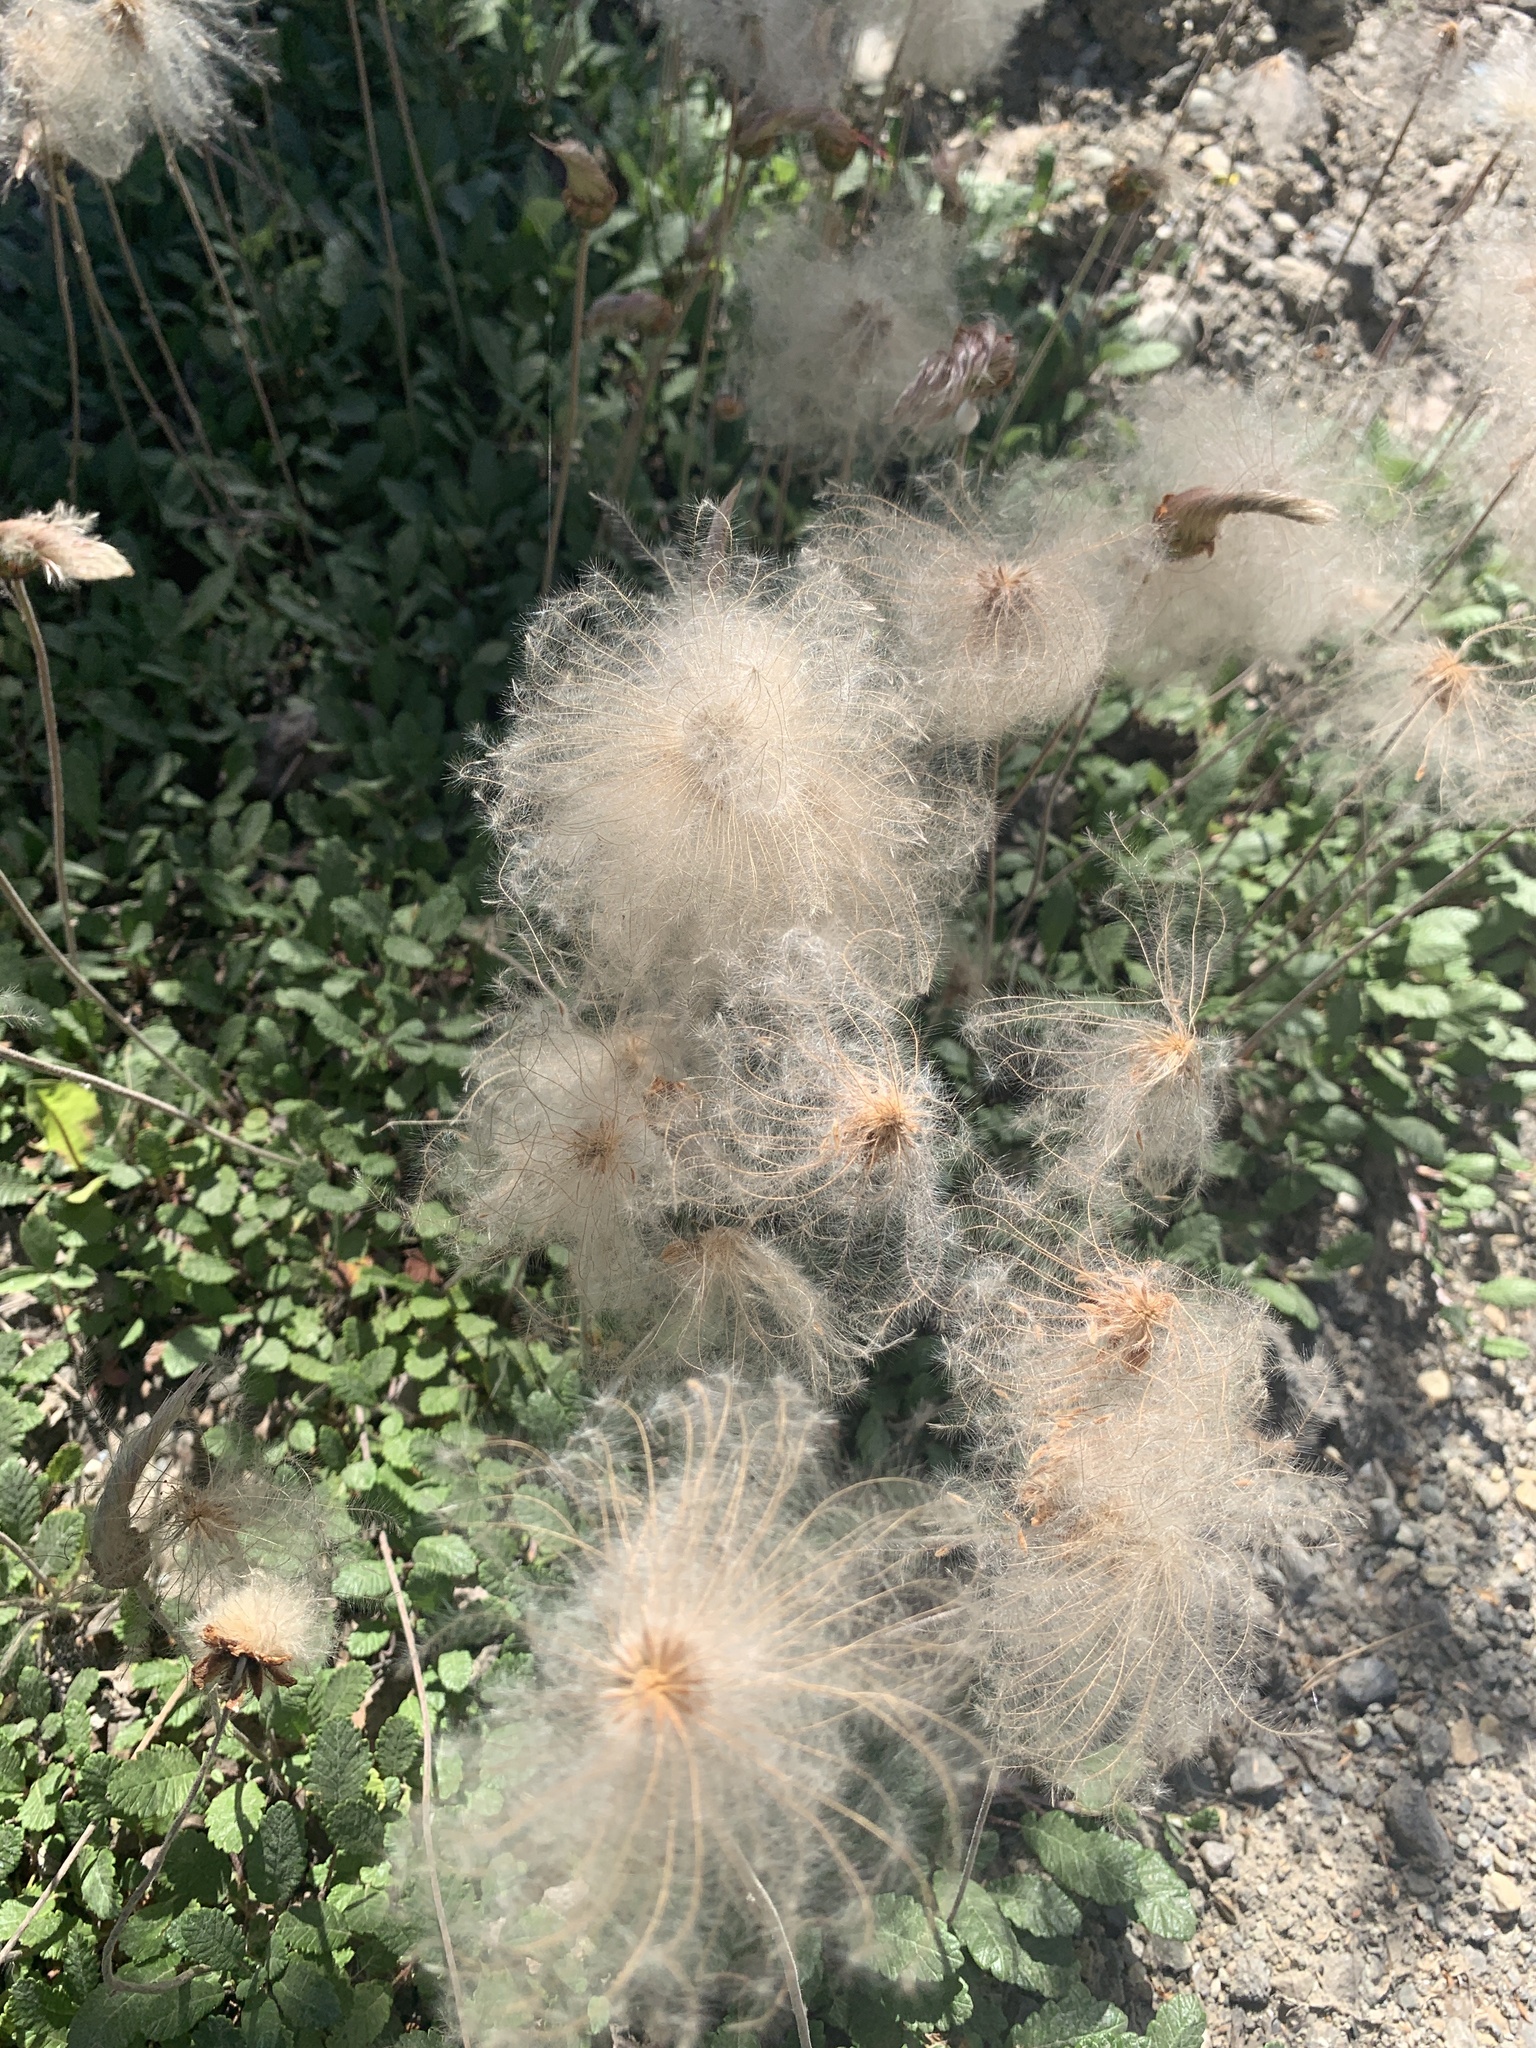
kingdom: Plantae
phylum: Tracheophyta
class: Magnoliopsida
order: Rosales
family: Rosaceae
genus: Dryas
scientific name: Dryas drummondii
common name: Drummond's dryad
